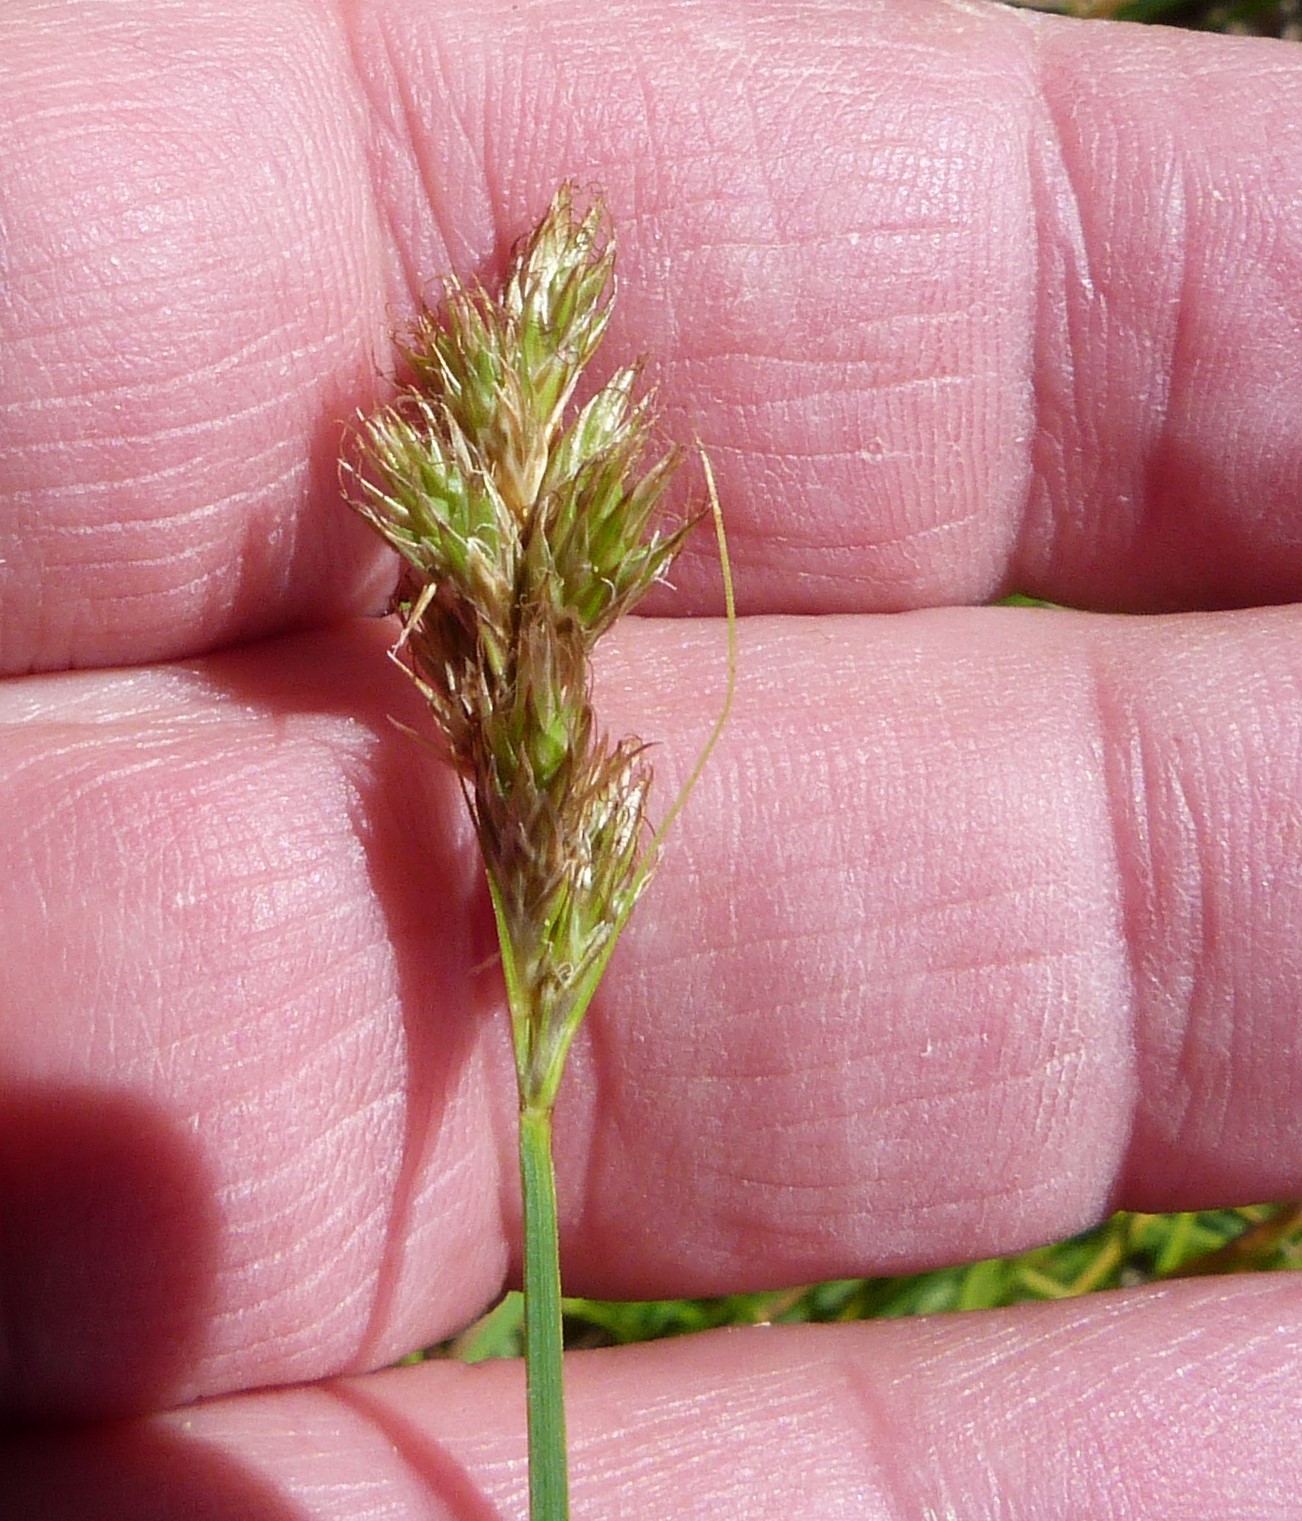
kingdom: Plantae
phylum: Tracheophyta
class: Liliopsida
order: Poales
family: Cyperaceae
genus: Carex
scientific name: Carex leporina
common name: Oval sedge
